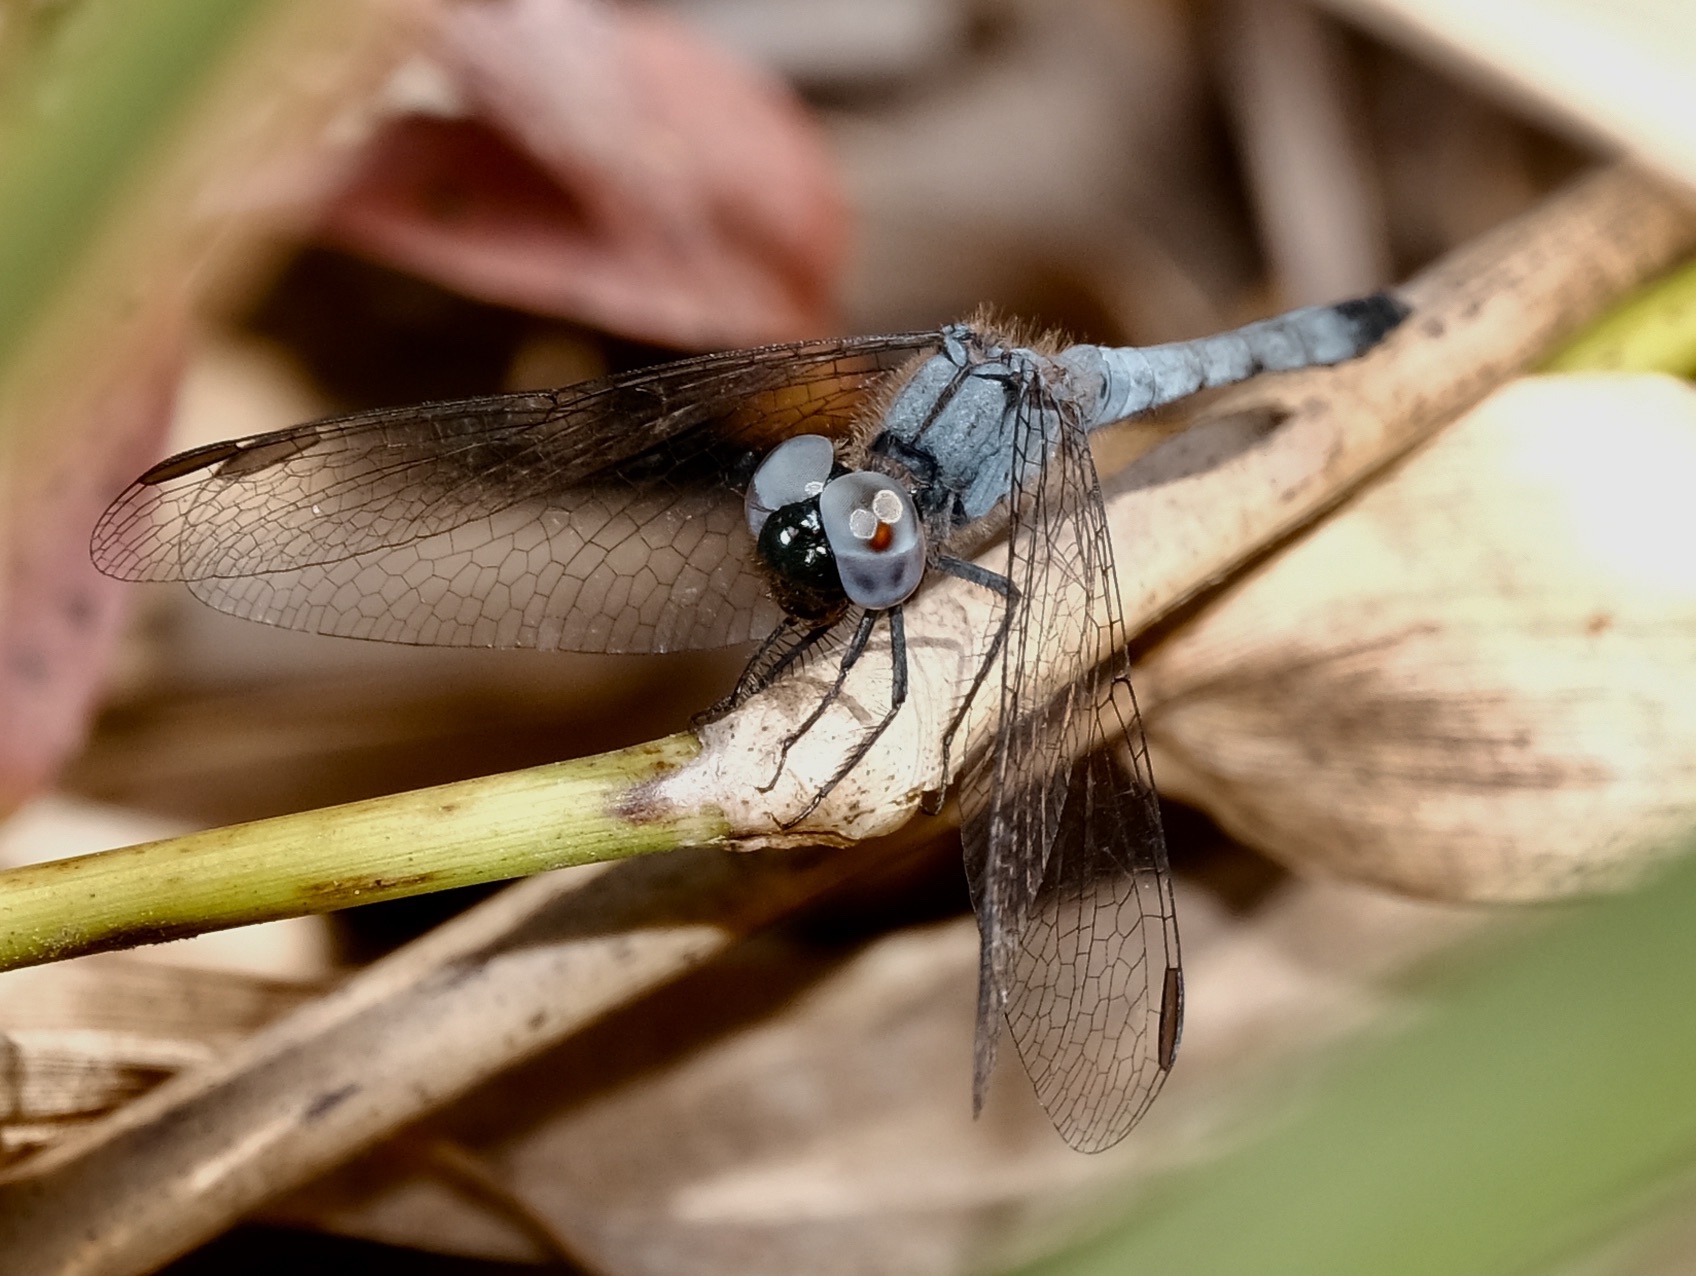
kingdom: Animalia
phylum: Arthropoda
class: Insecta
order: Odonata
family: Libellulidae
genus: Erythrodiplax
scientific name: Erythrodiplax minuscula
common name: Little blue dragonlet
